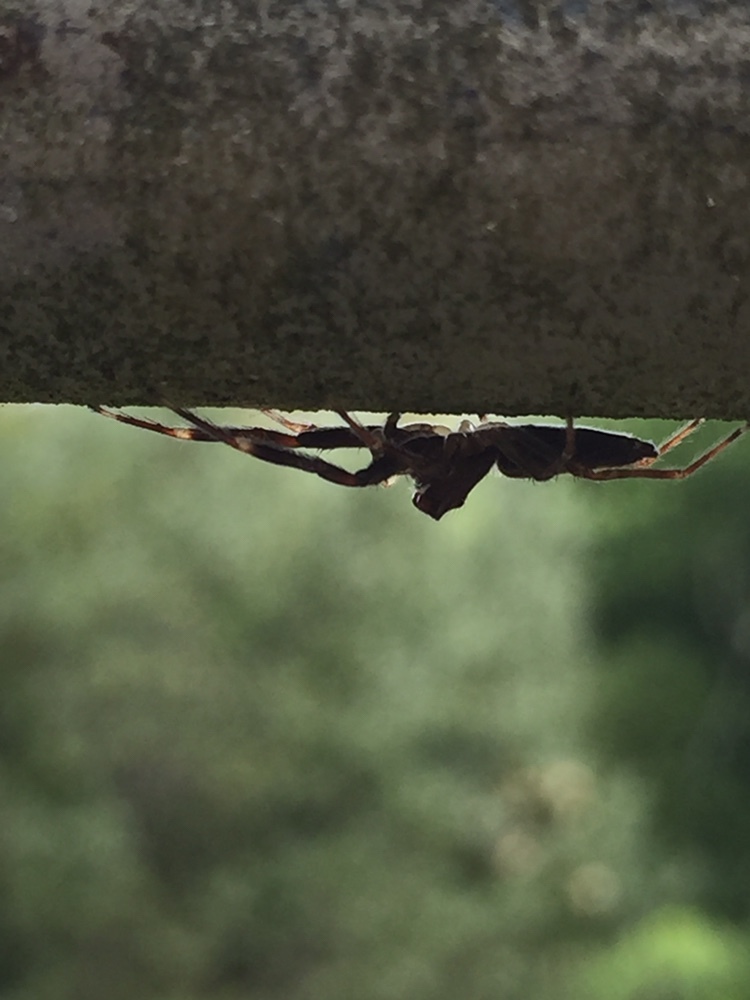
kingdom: Animalia
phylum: Arthropoda
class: Arachnida
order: Araneae
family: Salticidae
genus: Helpis
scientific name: Helpis minitabunda
